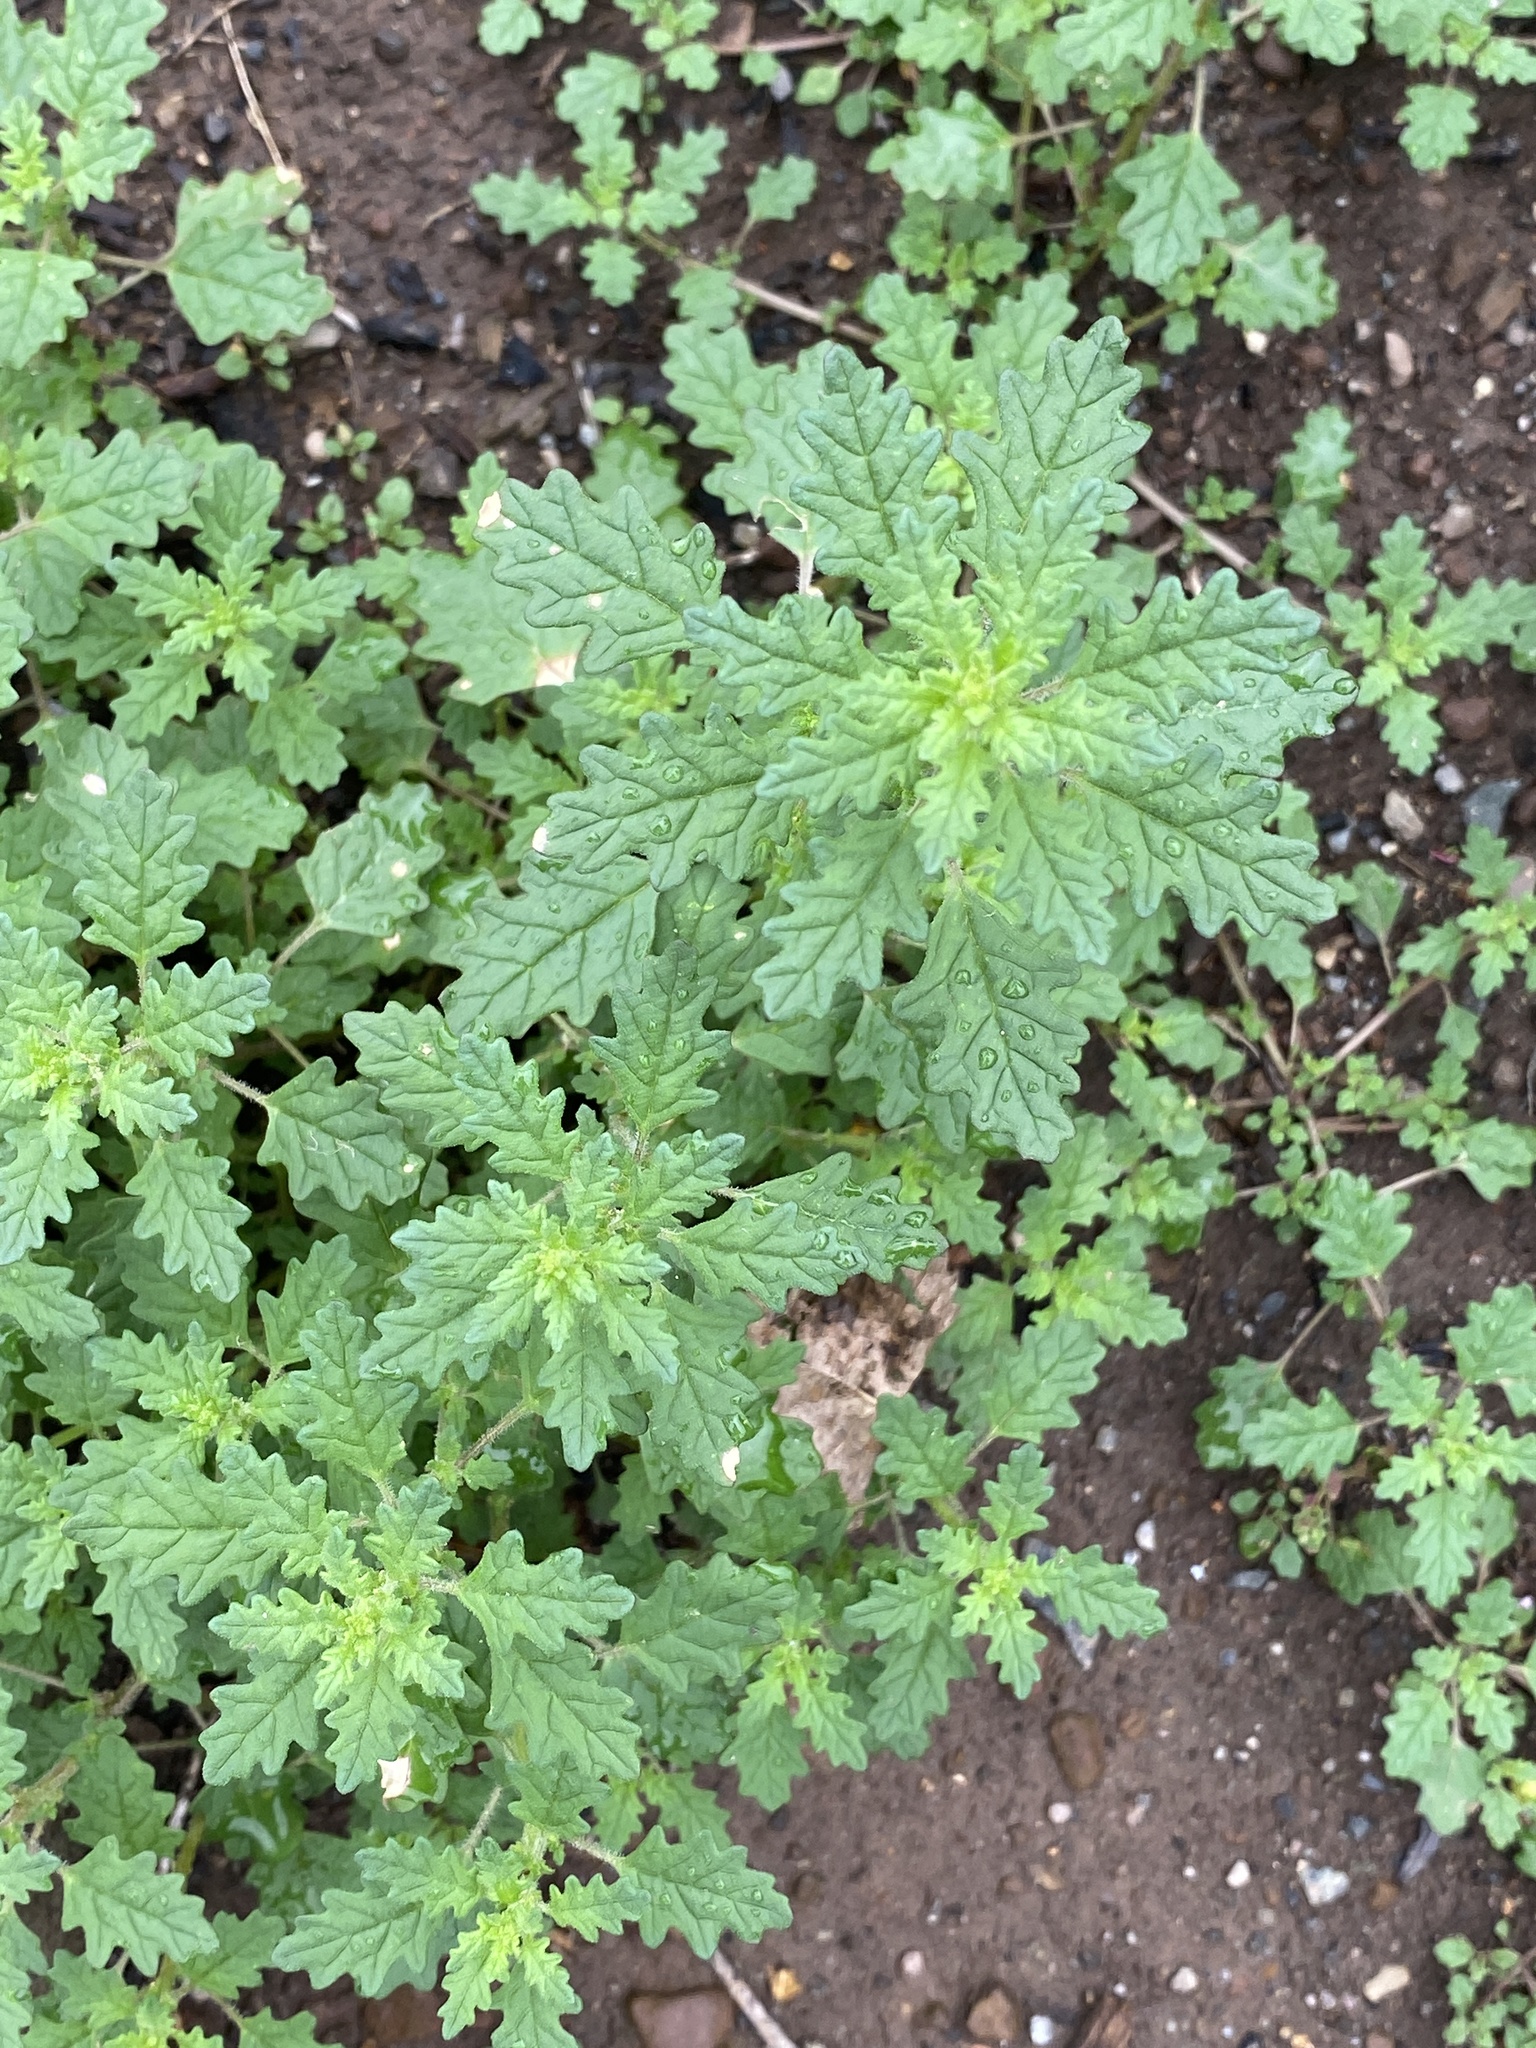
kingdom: Plantae
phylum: Tracheophyta
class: Magnoliopsida
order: Caryophyllales
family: Amaranthaceae
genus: Dysphania
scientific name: Dysphania pumilio
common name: Clammy goosefoot
